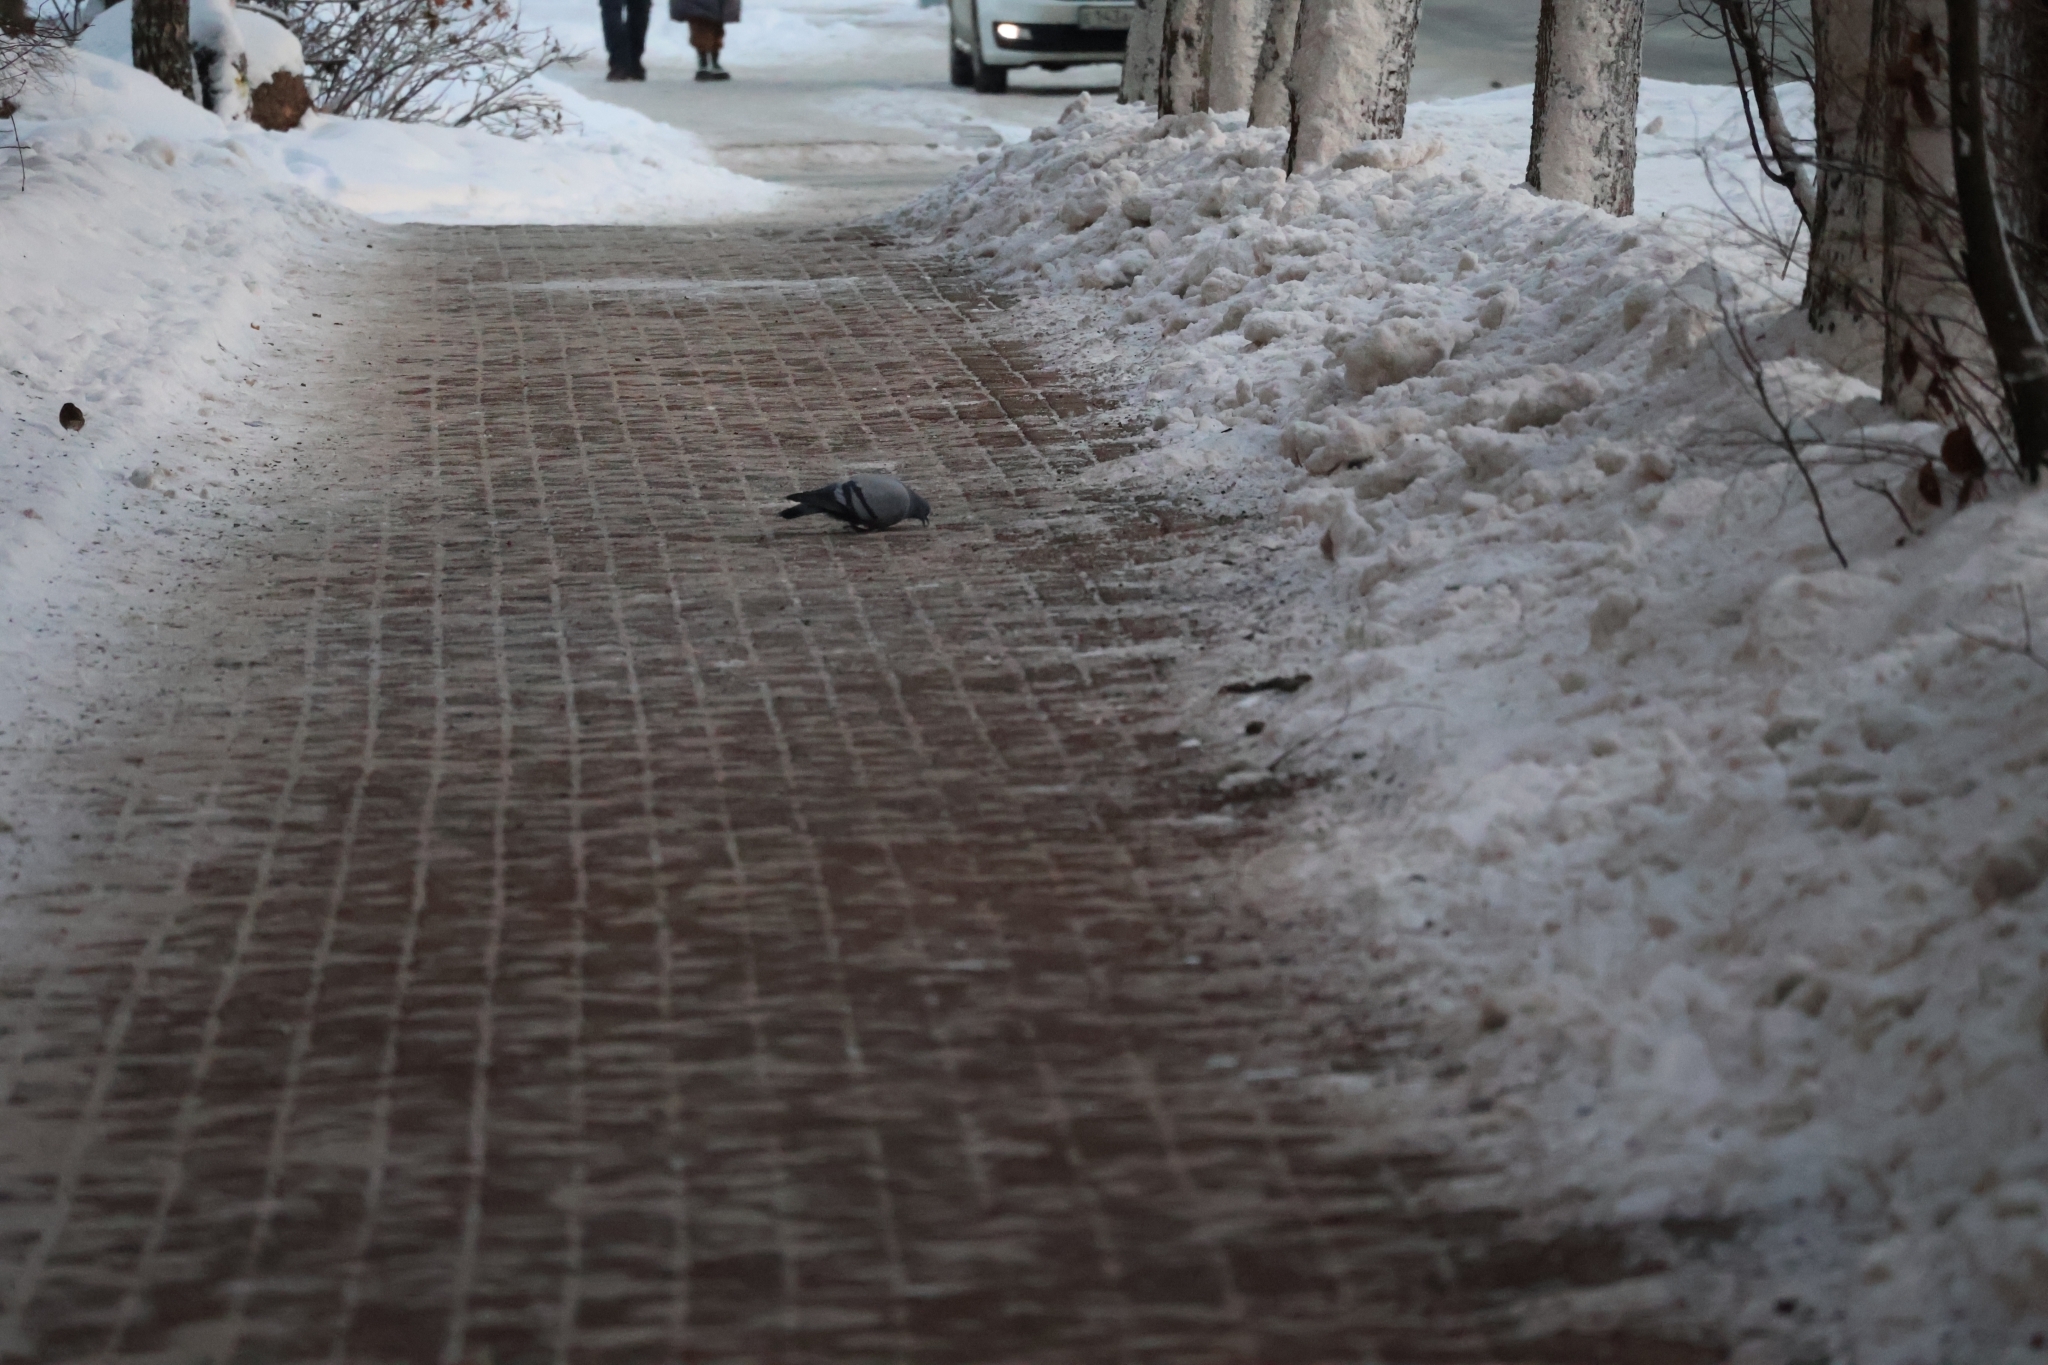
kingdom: Animalia
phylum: Chordata
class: Aves
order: Columbiformes
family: Columbidae
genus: Columba
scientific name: Columba livia
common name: Rock pigeon
